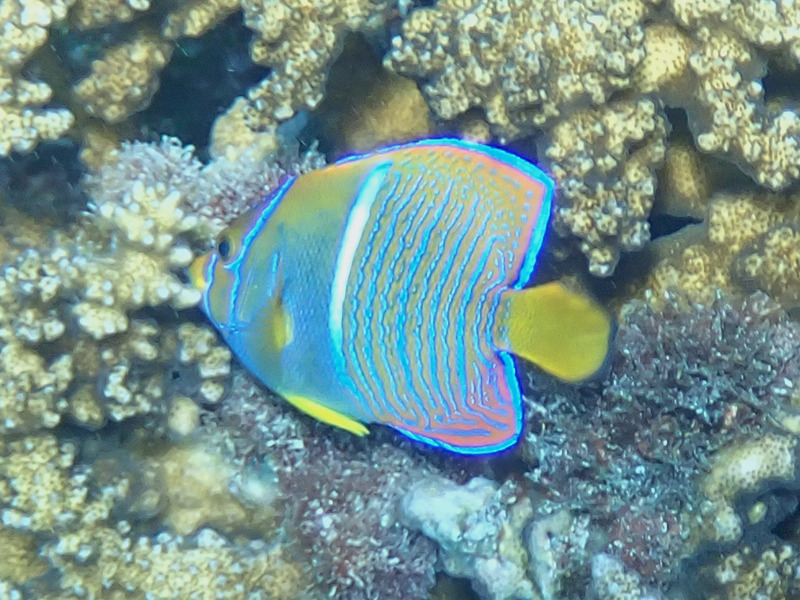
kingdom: Animalia
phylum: Chordata
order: Perciformes
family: Pomacanthidae
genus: Holacanthus
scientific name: Holacanthus passer
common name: King angelfish
